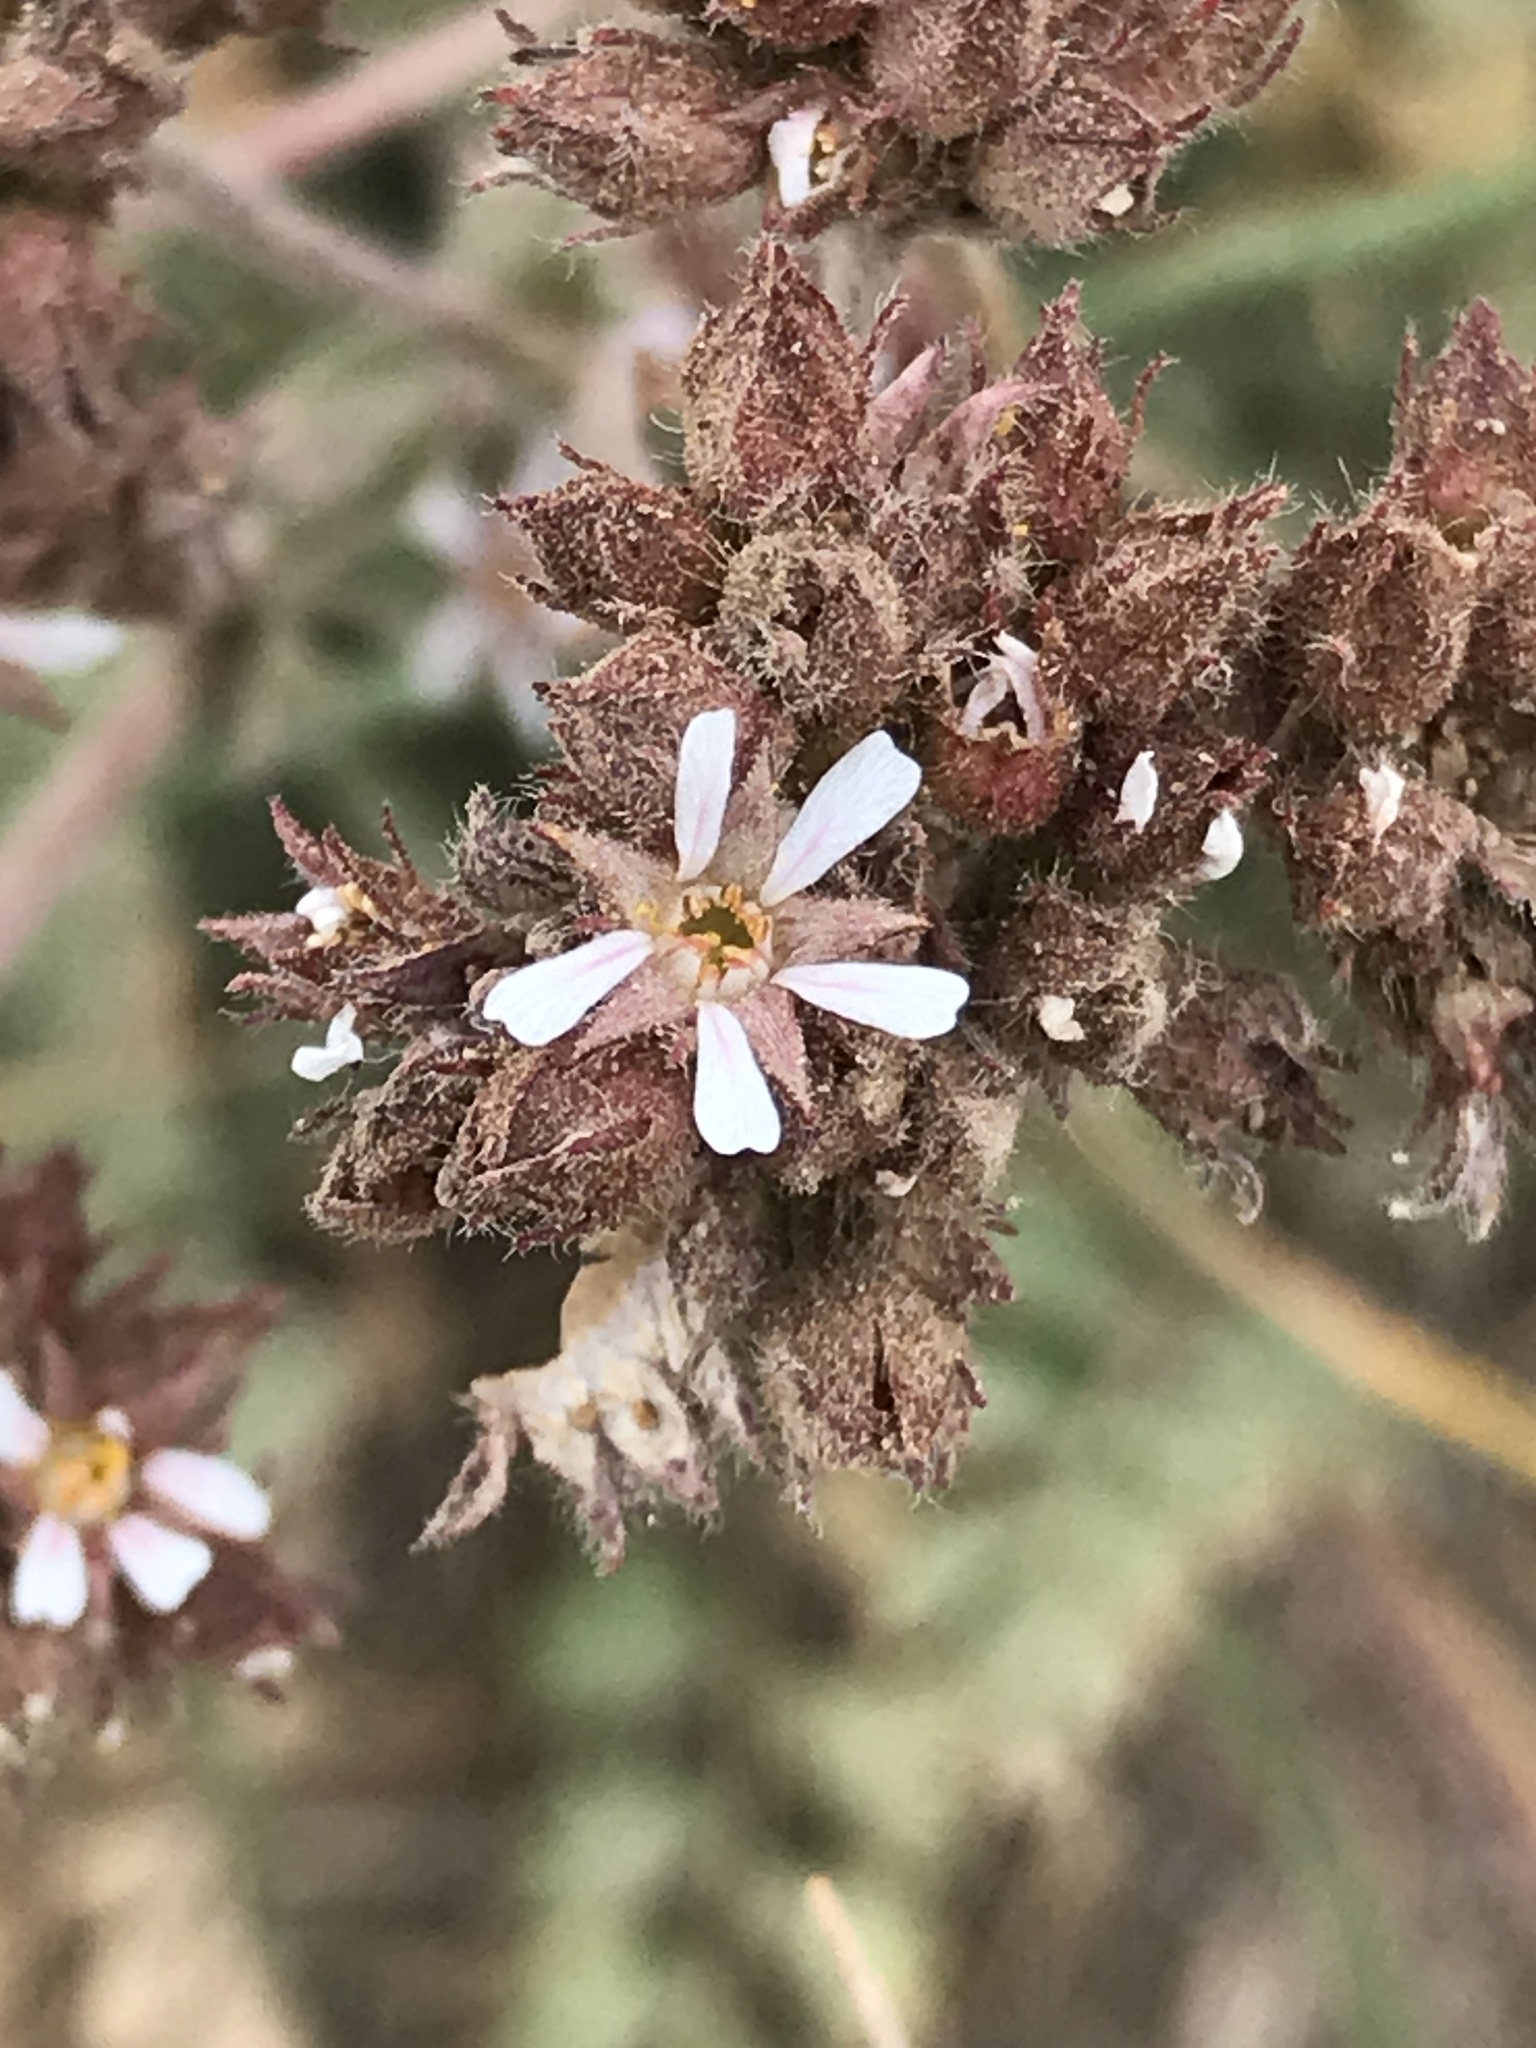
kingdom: Plantae
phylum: Tracheophyta
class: Magnoliopsida
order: Rosales
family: Rosaceae
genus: Potentilla
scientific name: Potentilla douglasii
